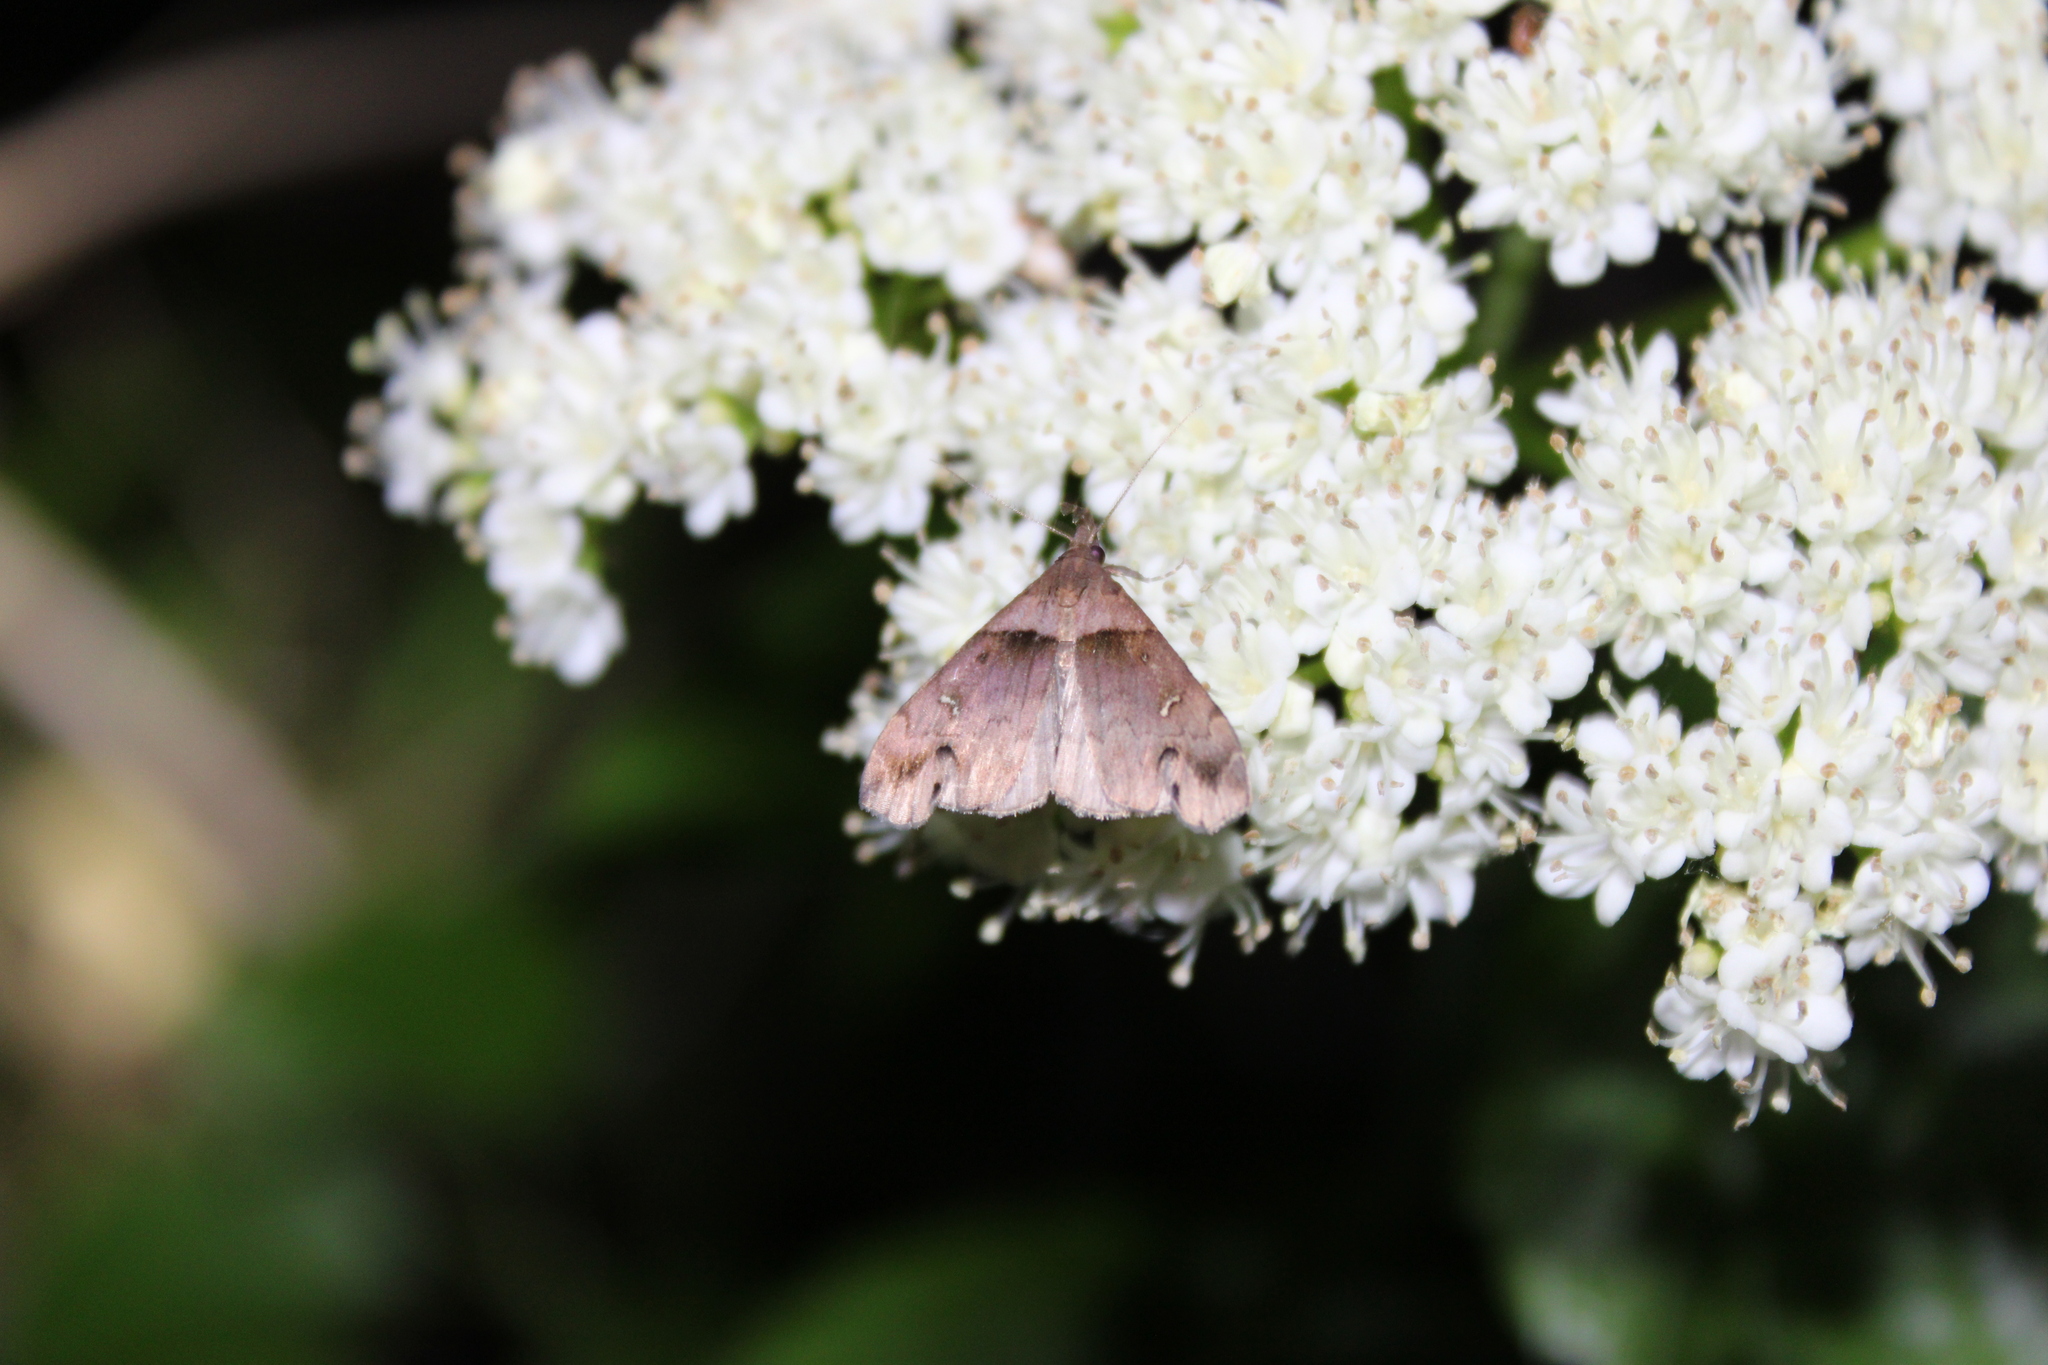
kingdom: Animalia
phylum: Arthropoda
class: Insecta
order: Lepidoptera
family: Erebidae
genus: Lascoria
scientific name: Lascoria ambigualis
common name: Ambiguous moth
